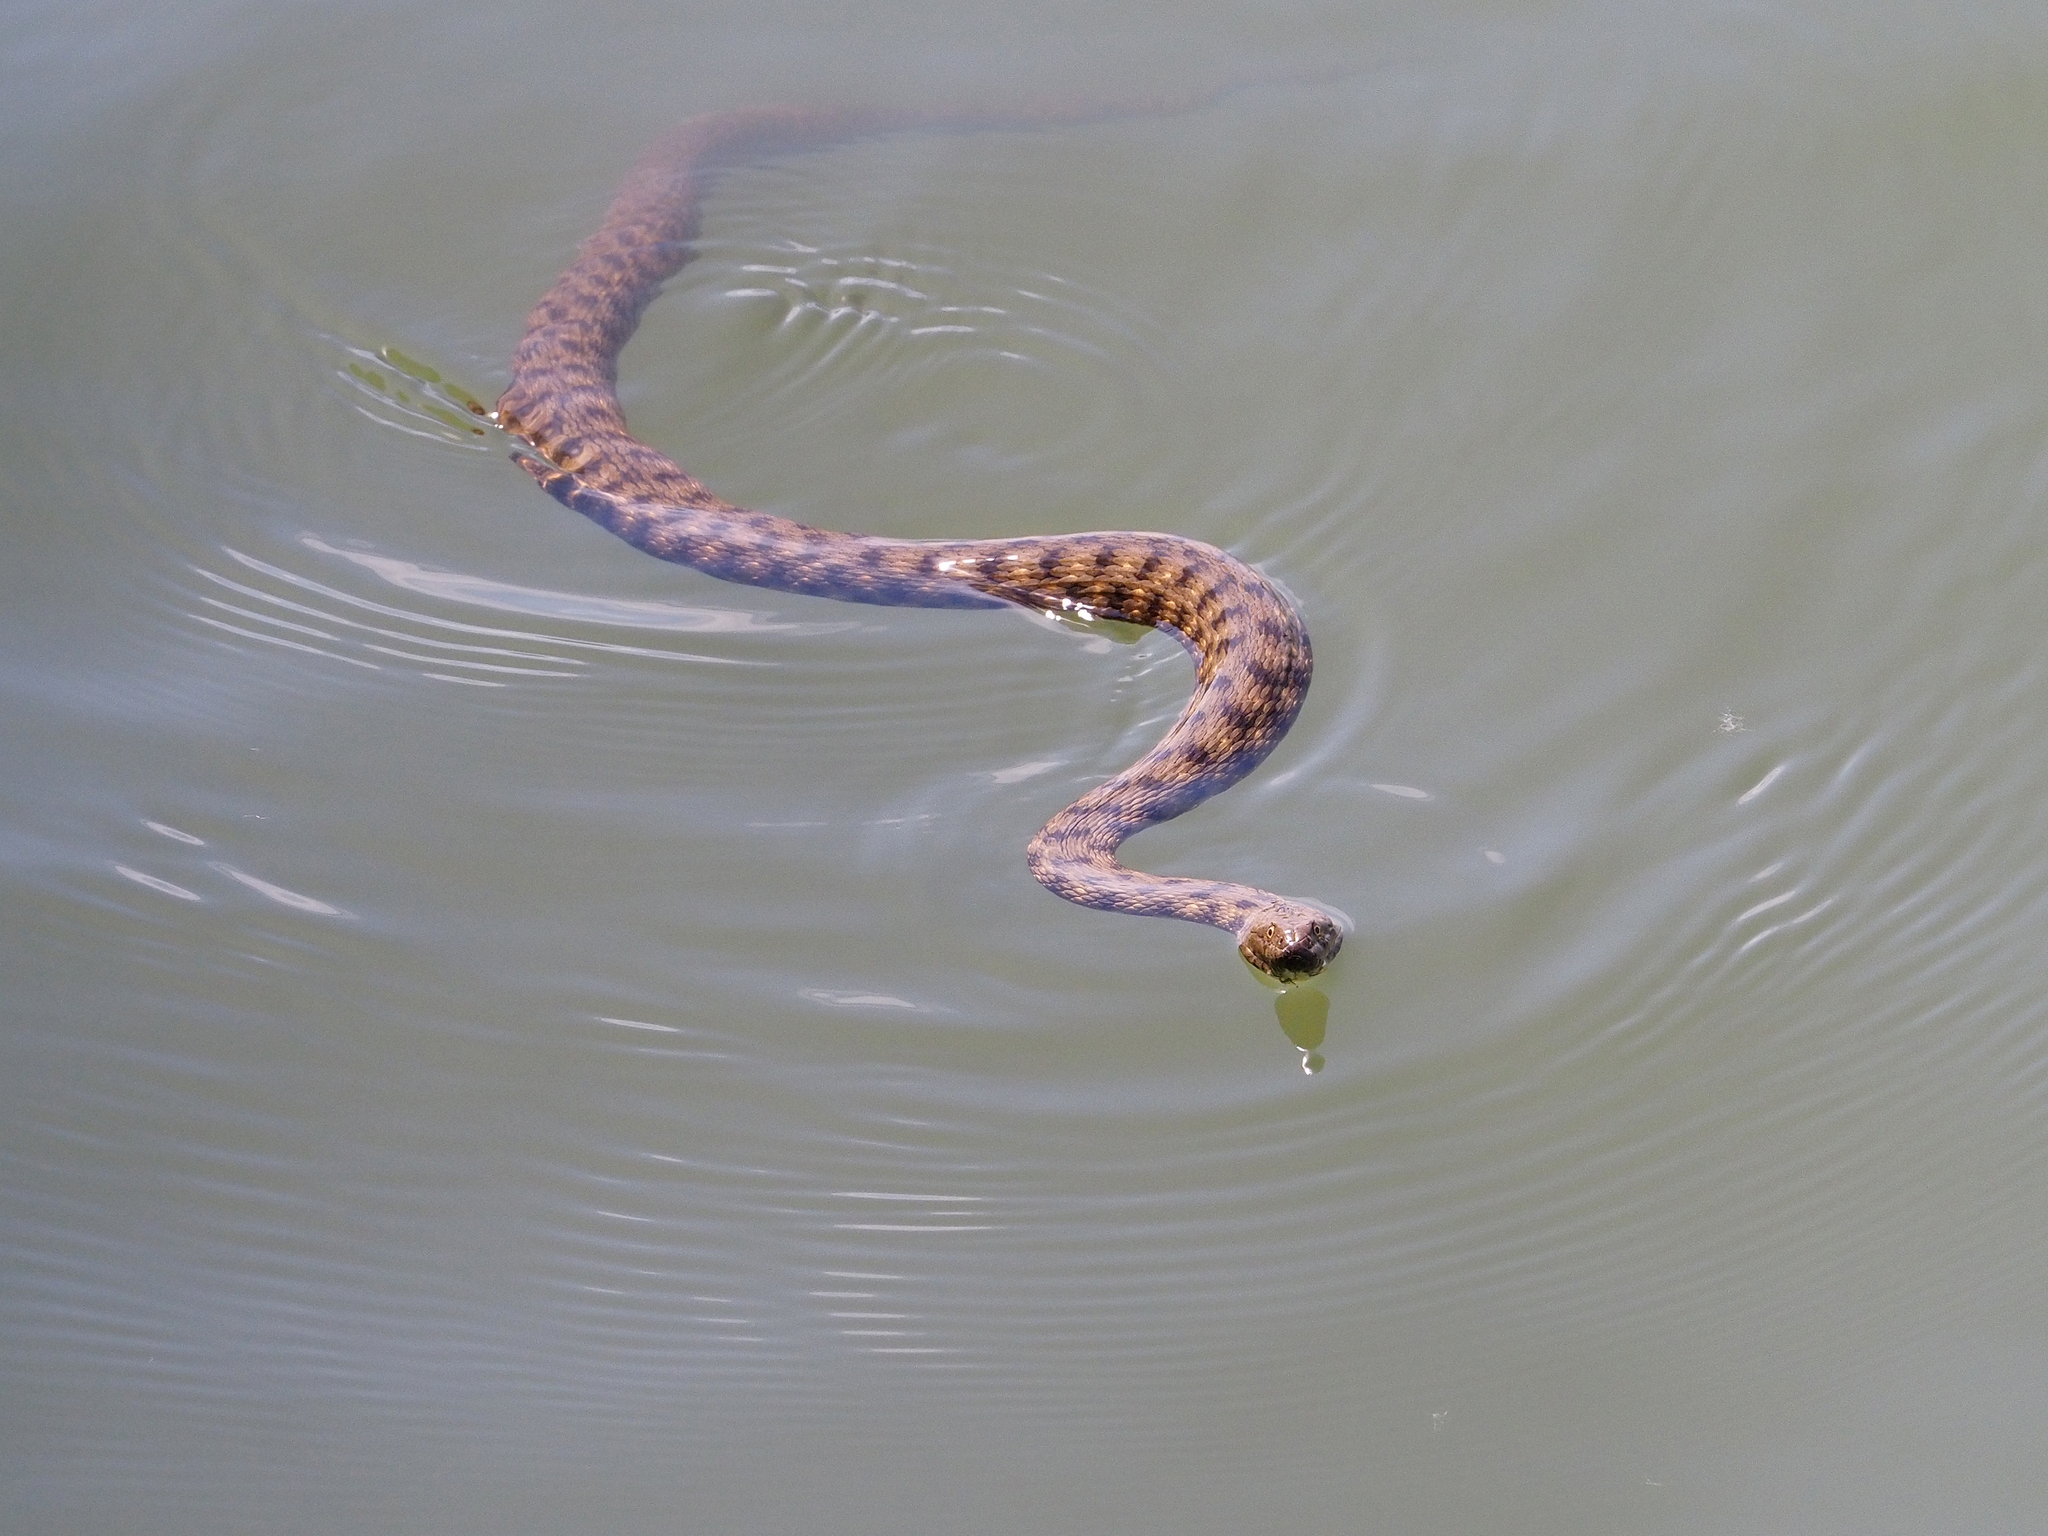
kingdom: Animalia
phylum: Chordata
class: Squamata
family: Colubridae
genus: Natrix
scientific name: Natrix tessellata
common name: Dice snake
